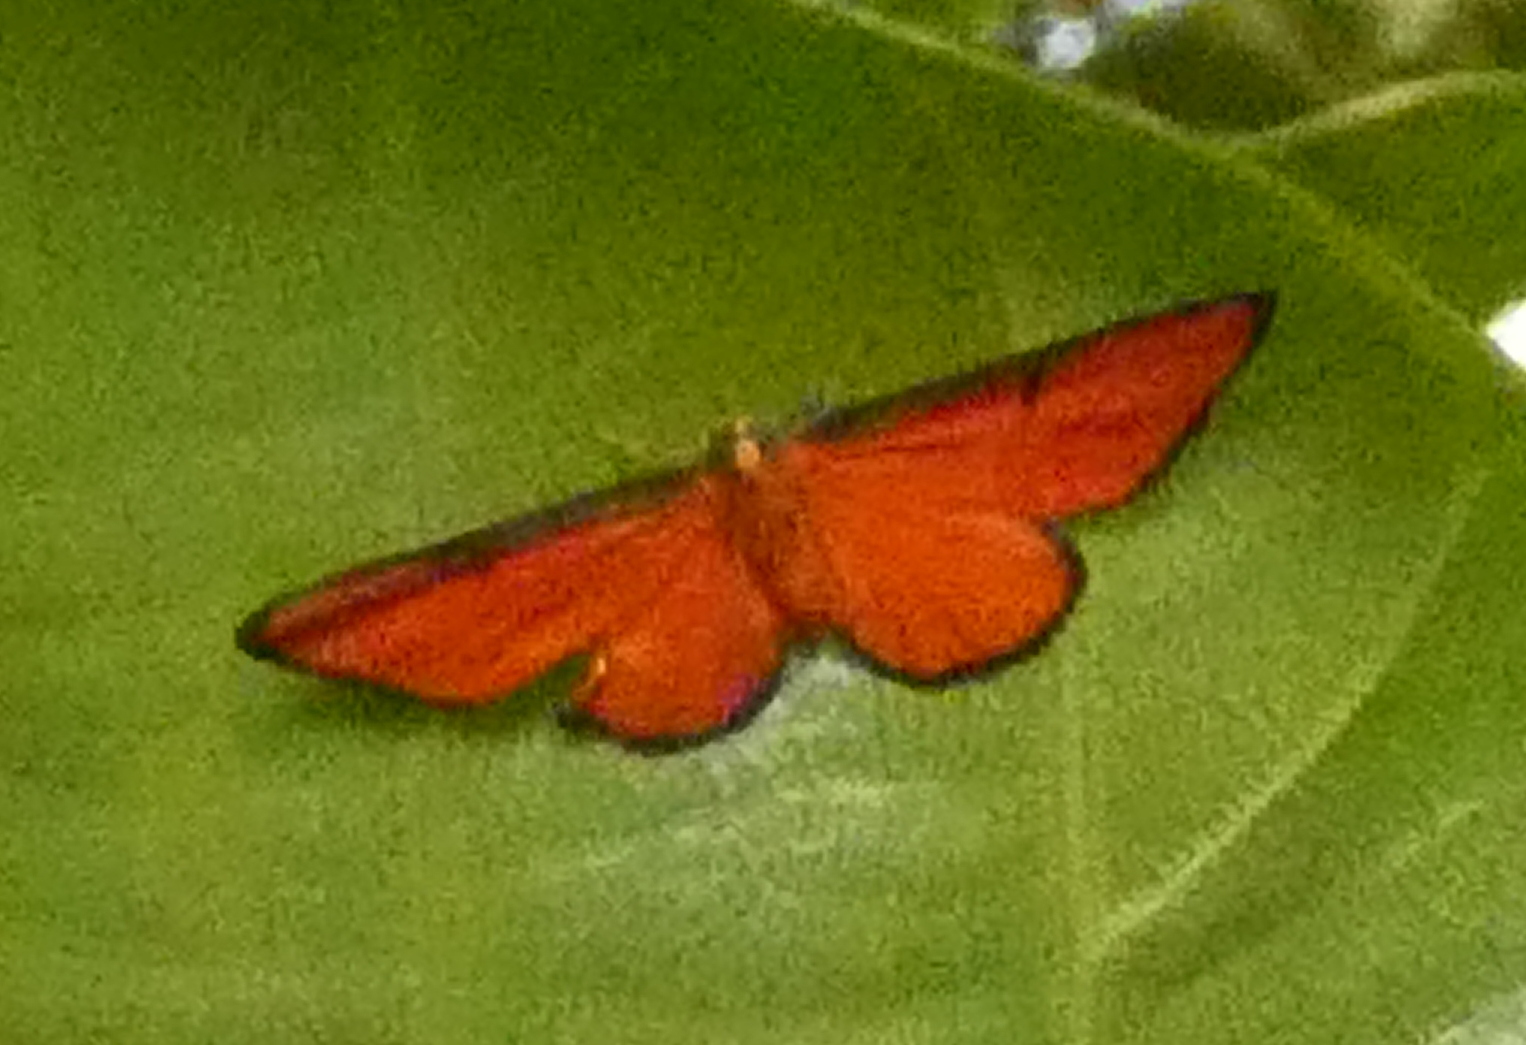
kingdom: Animalia
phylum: Arthropoda
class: Insecta
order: Lepidoptera
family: Lycaenidae
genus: Mesene
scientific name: Mesene phareus
